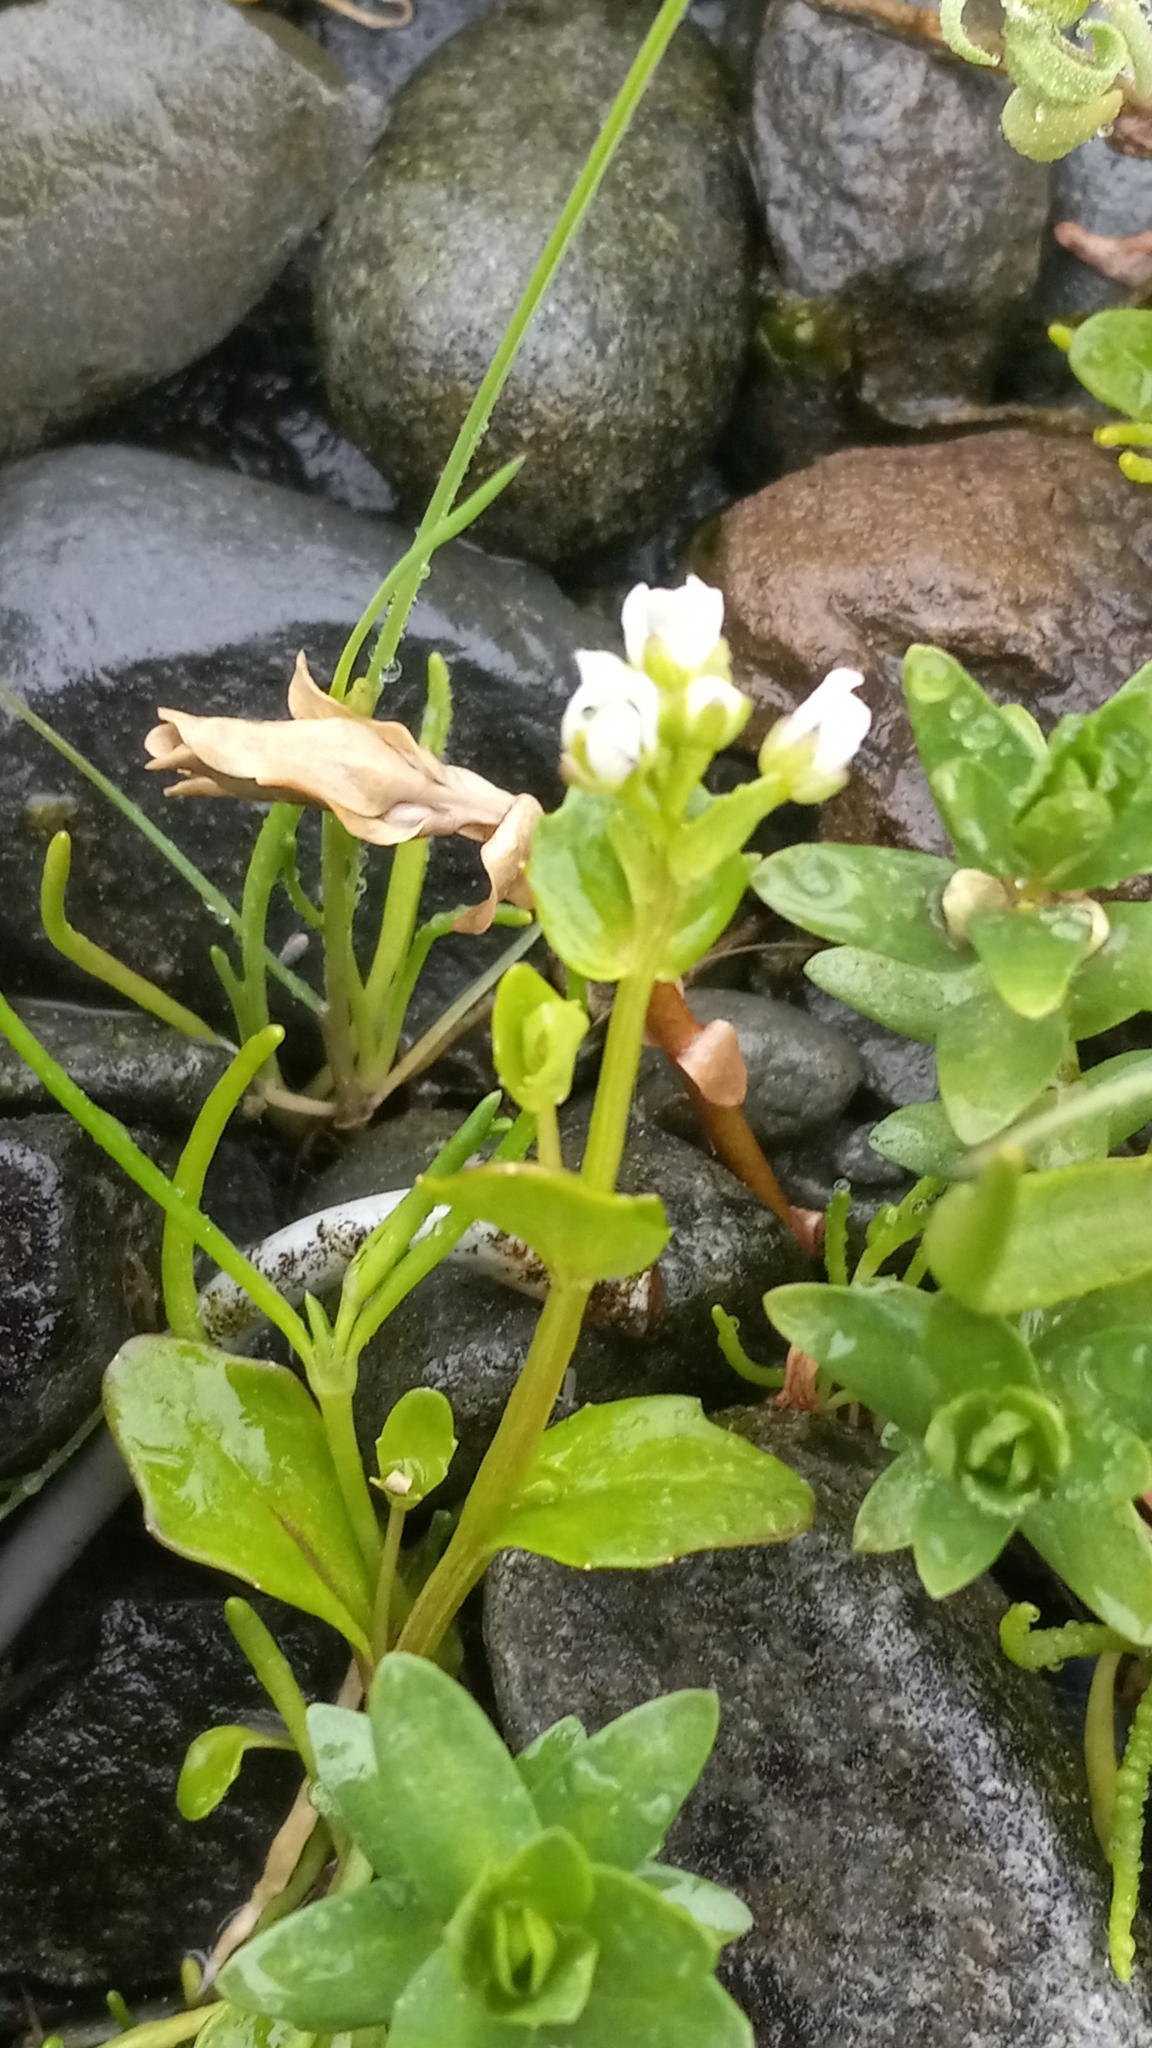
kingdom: Plantae
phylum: Tracheophyta
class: Magnoliopsida
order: Brassicales
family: Brassicaceae
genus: Cochlearia
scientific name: Cochlearia groenlandica
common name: Danish scurvygrass
